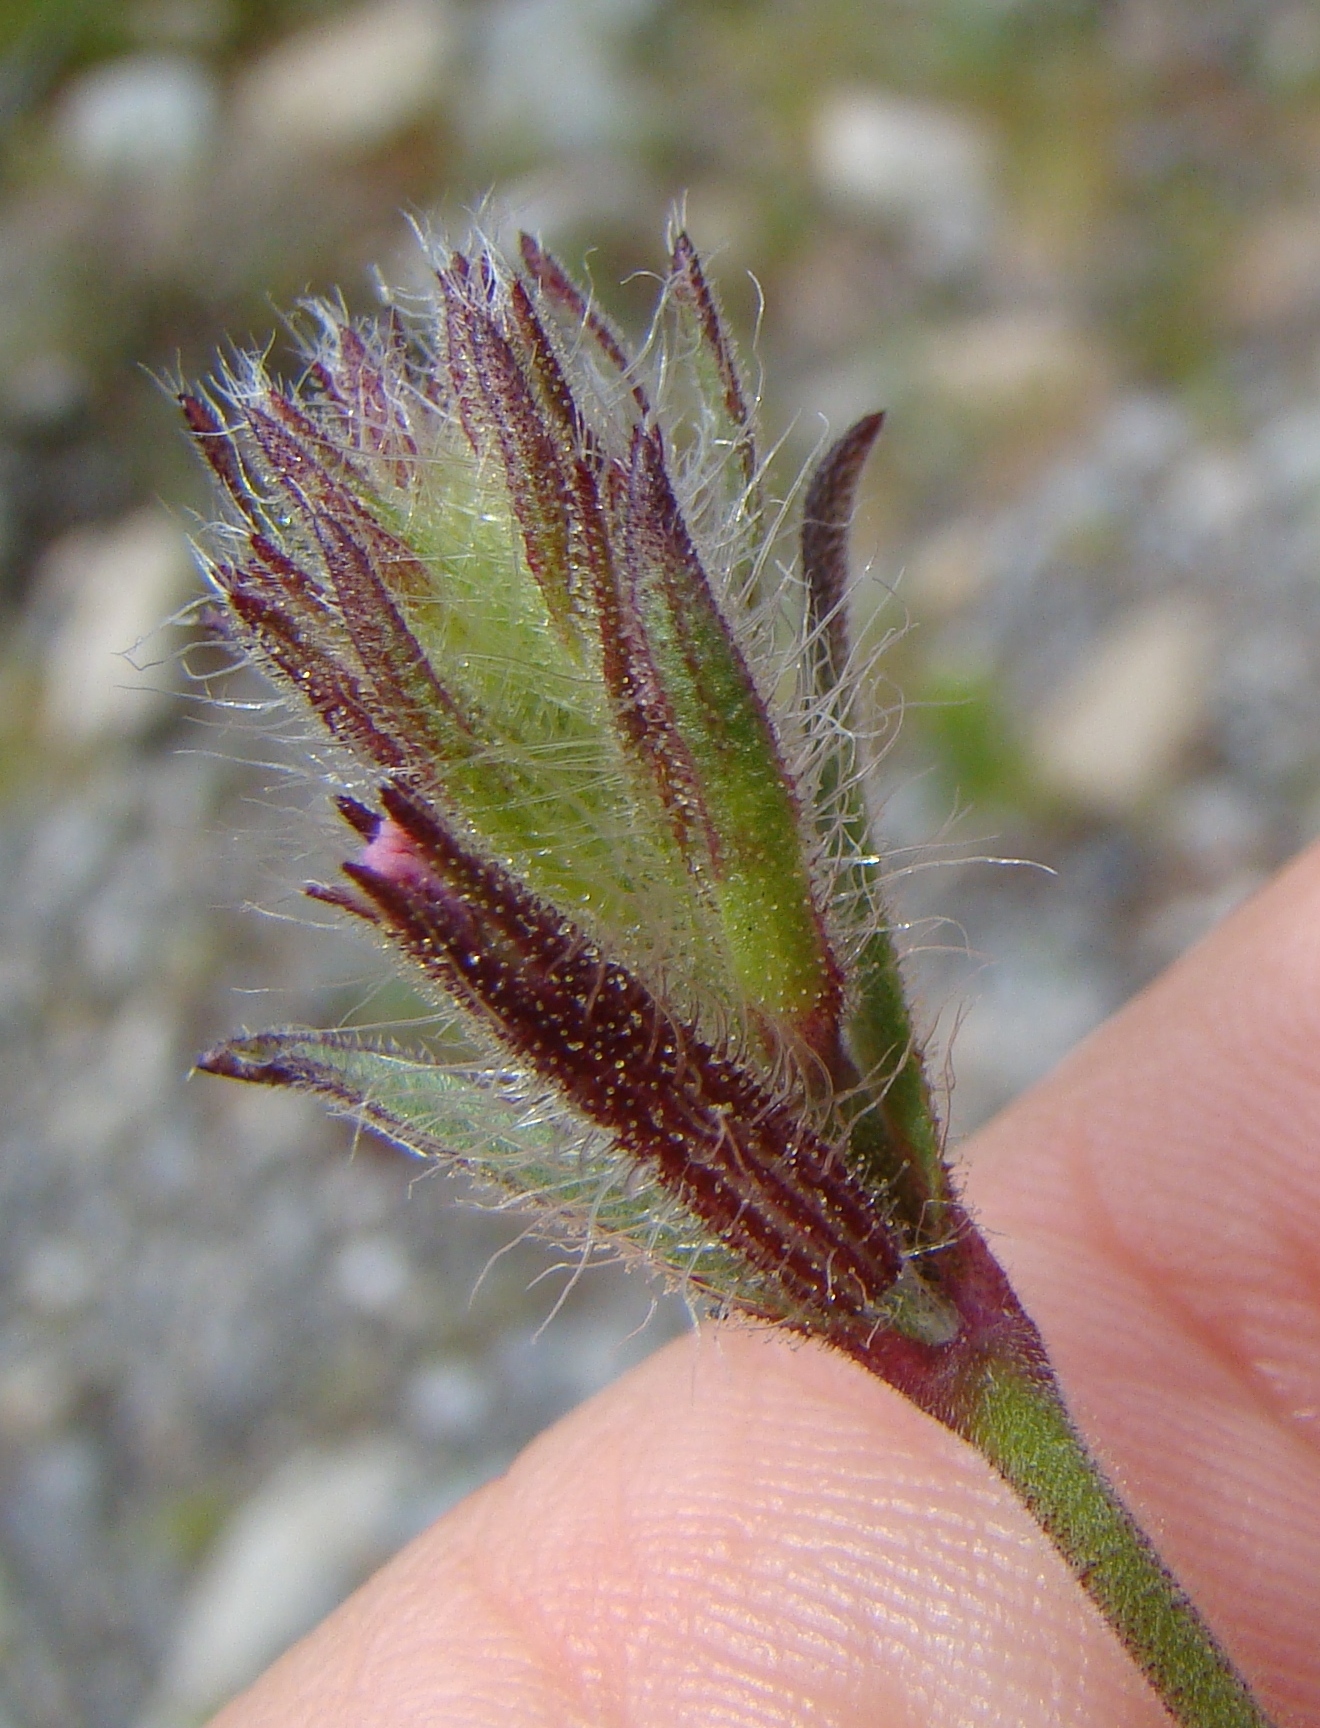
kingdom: Plantae
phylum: Tracheophyta
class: Magnoliopsida
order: Caryophyllales
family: Caryophyllaceae
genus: Silene
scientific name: Silene gallica
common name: Small-flowered catchfly
